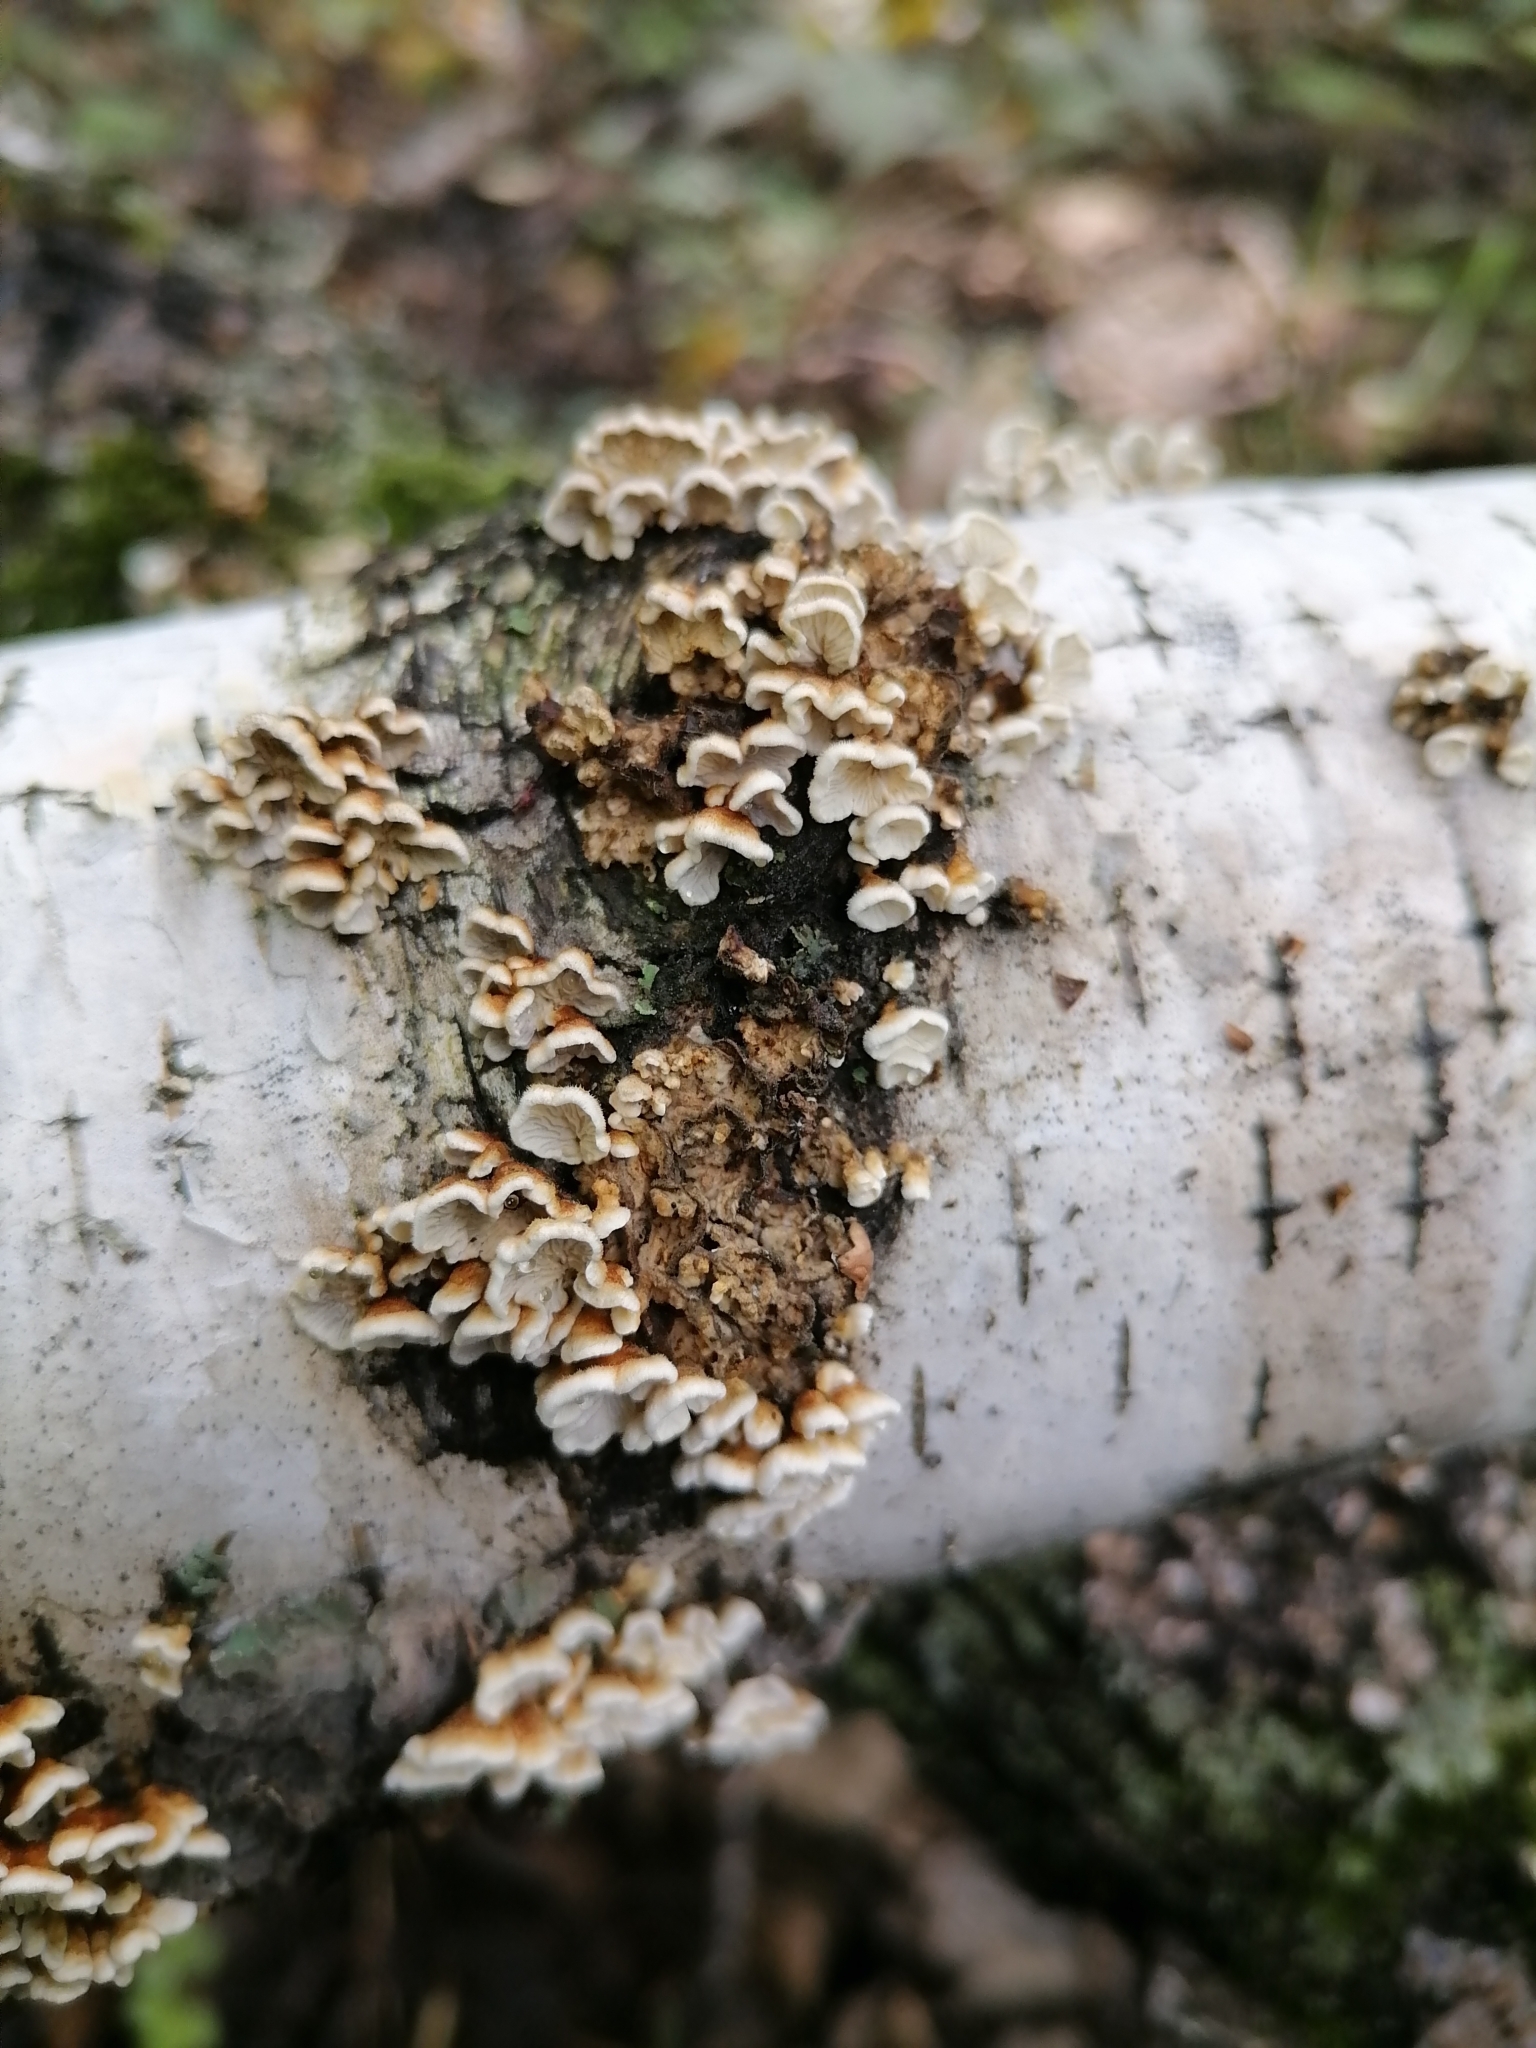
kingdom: Fungi
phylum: Basidiomycota
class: Agaricomycetes
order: Amylocorticiales
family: Amylocorticiaceae
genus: Plicaturopsis
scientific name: Plicaturopsis crispa
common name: Crimped gill
